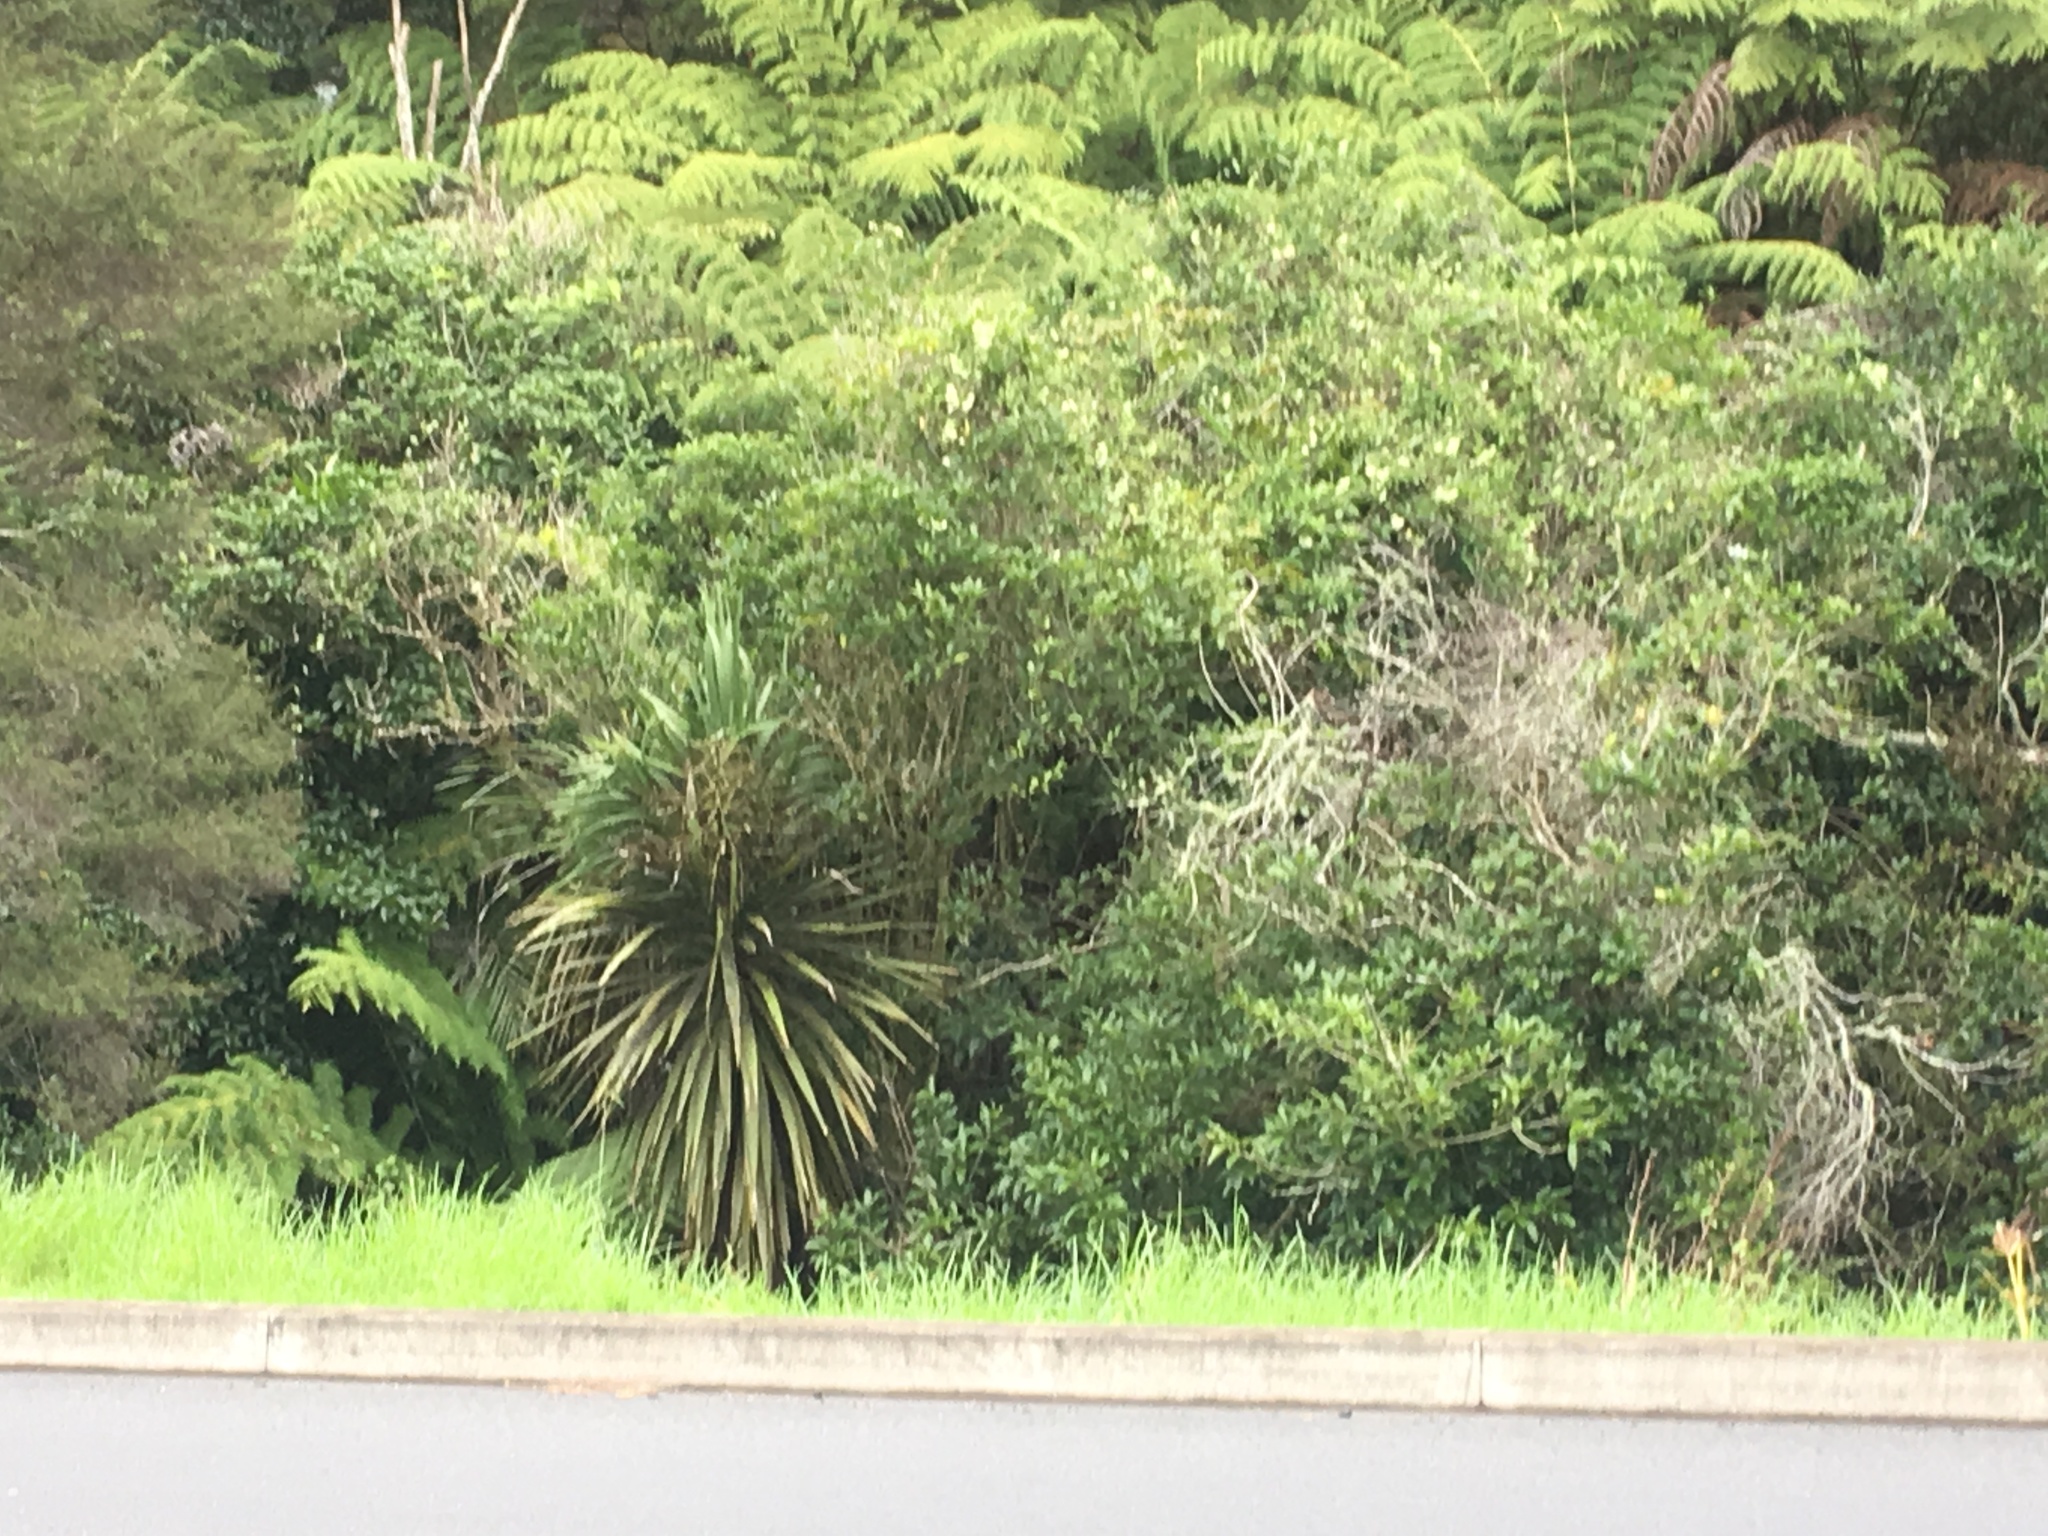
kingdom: Plantae
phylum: Tracheophyta
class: Liliopsida
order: Asparagales
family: Asparagaceae
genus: Cordyline
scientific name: Cordyline australis
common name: Cabbage-palm
